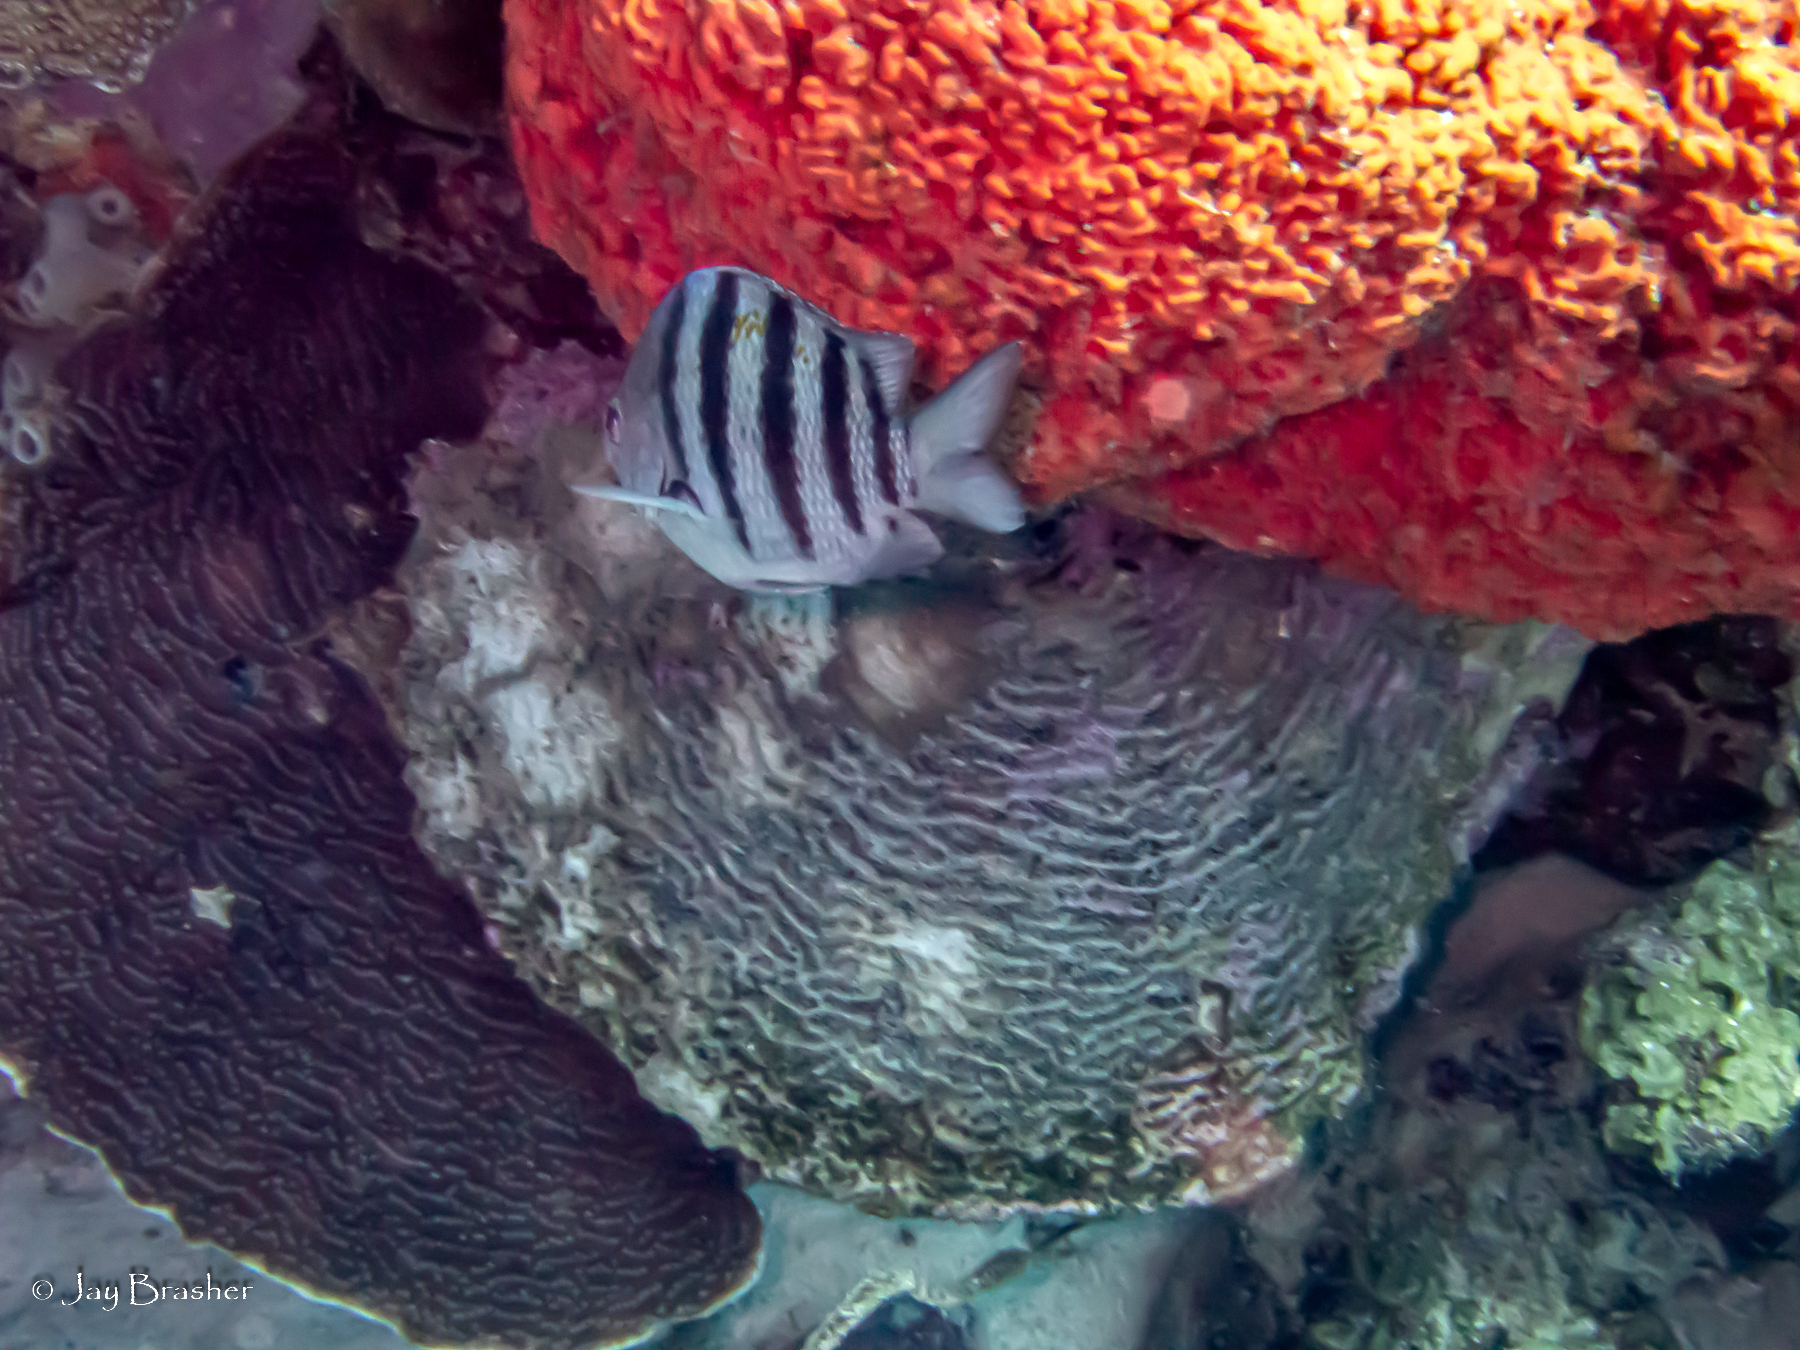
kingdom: Animalia
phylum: Chordata
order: Perciformes
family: Pomacentridae
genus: Abudefduf
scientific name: Abudefduf saxatilis
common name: Sergeant major
